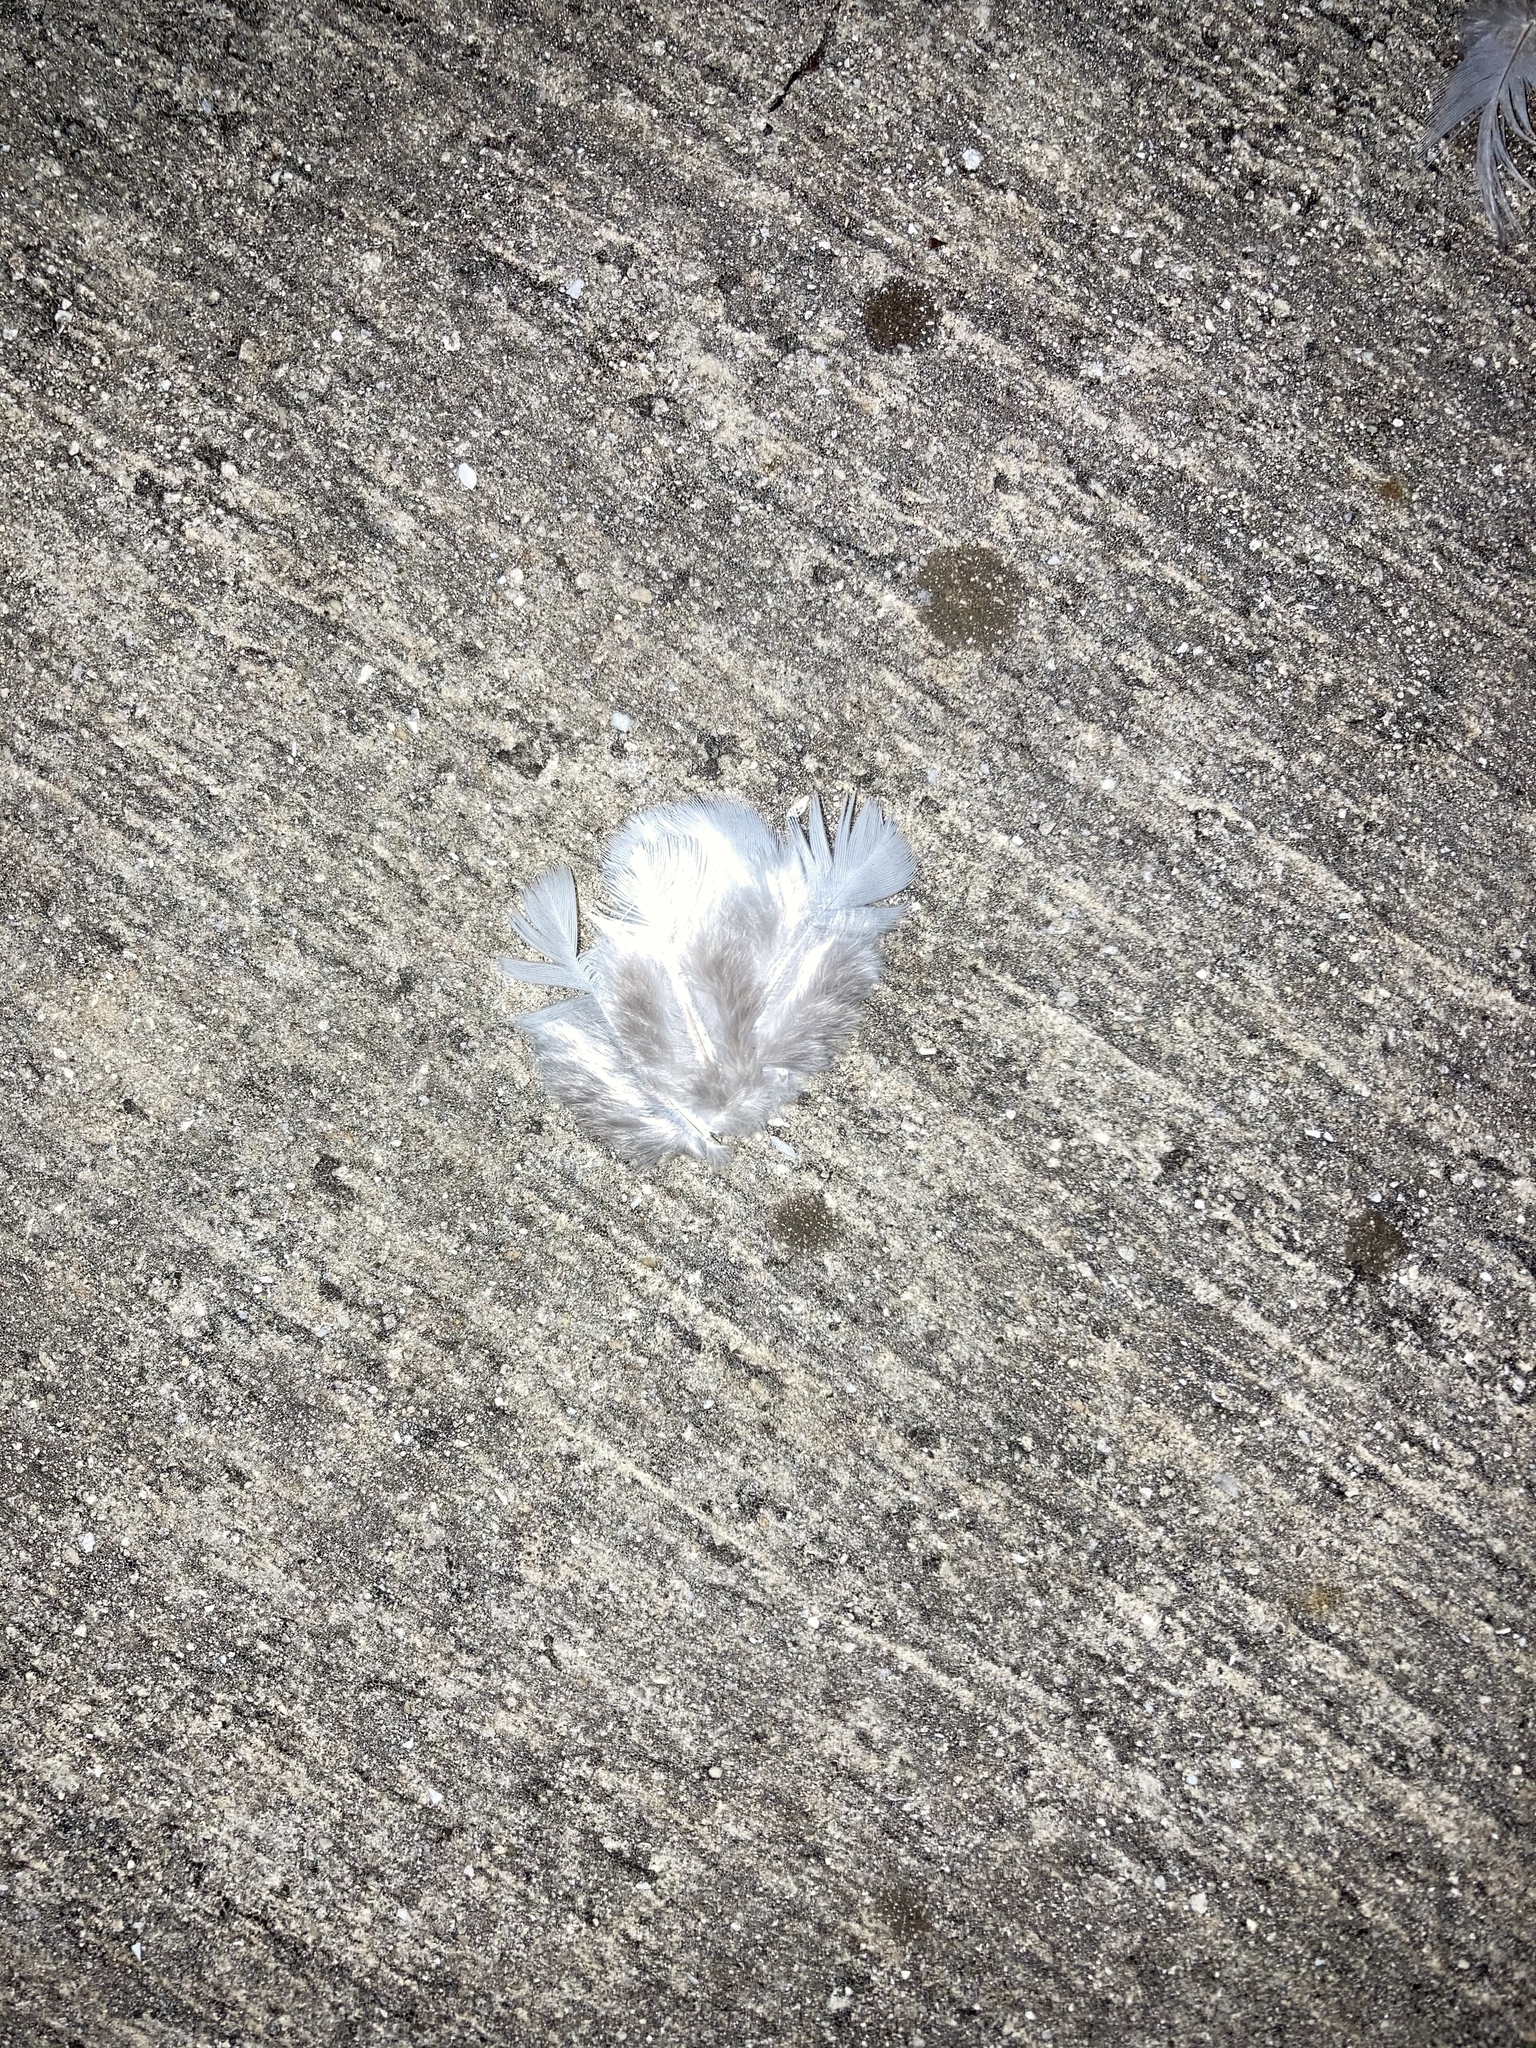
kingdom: Animalia
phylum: Chordata
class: Aves
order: Columbiformes
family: Columbidae
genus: Columba
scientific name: Columba livia
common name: Rock pigeon
